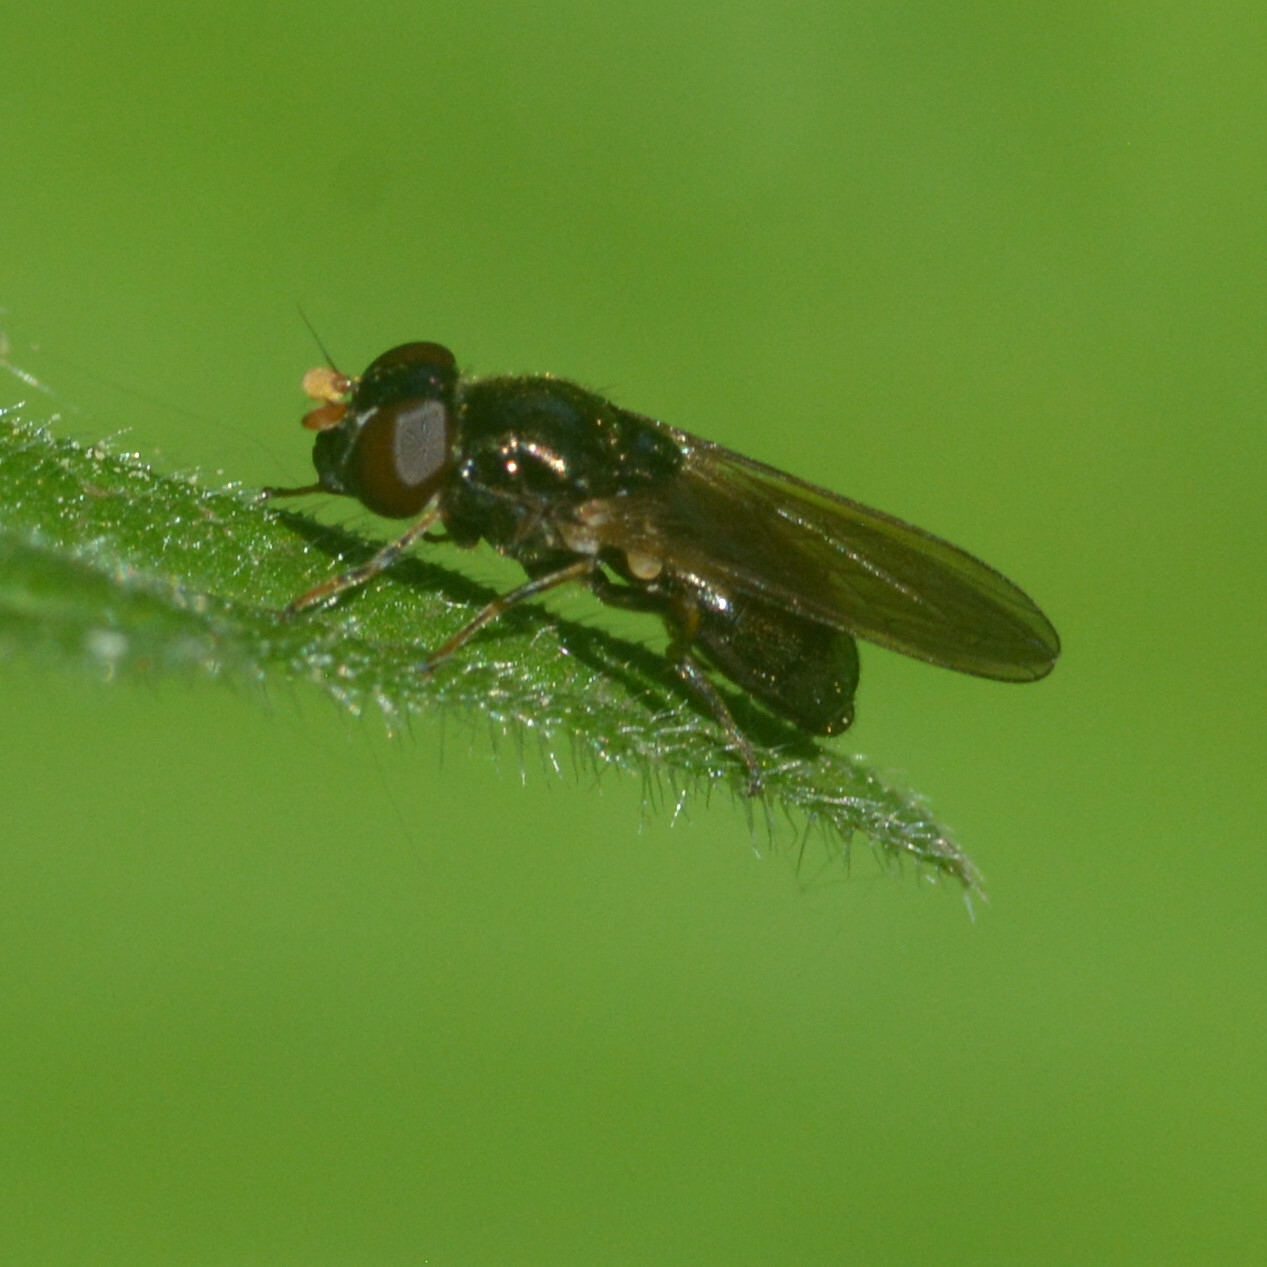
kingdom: Animalia
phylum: Arthropoda
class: Insecta
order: Diptera
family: Syrphidae
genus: Cheilosia
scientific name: Cheilosia pagana
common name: Hover fly
